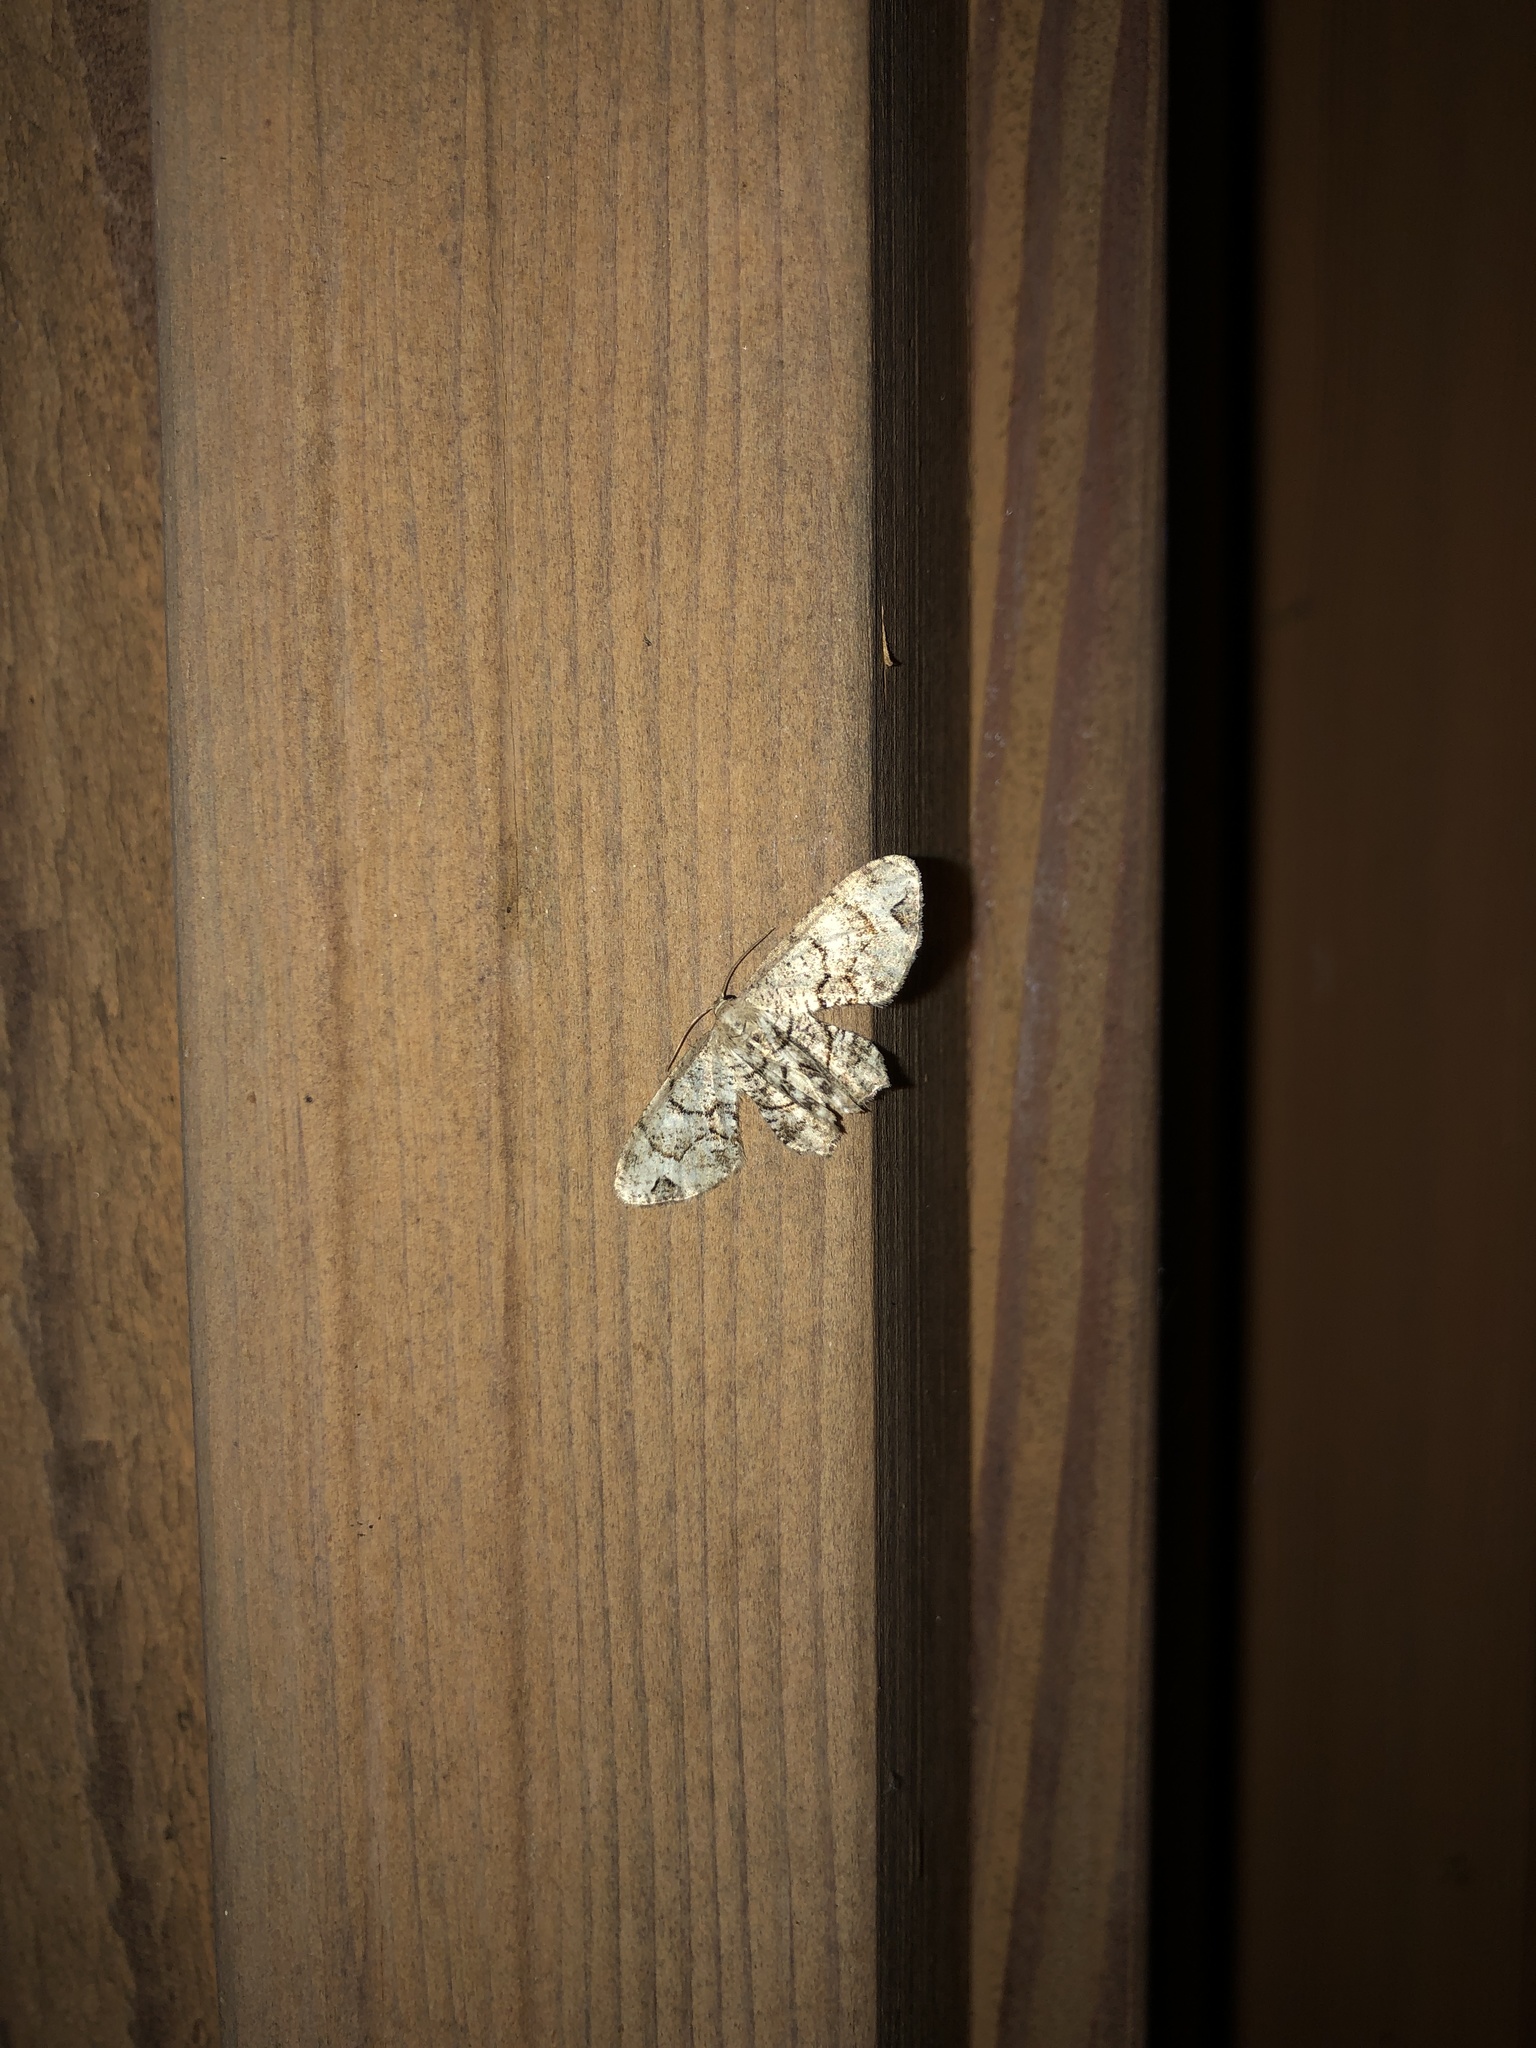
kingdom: Animalia
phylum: Arthropoda
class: Insecta
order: Lepidoptera
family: Uraniidae
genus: Epiplema
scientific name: Epiplema Callizzia amorata
